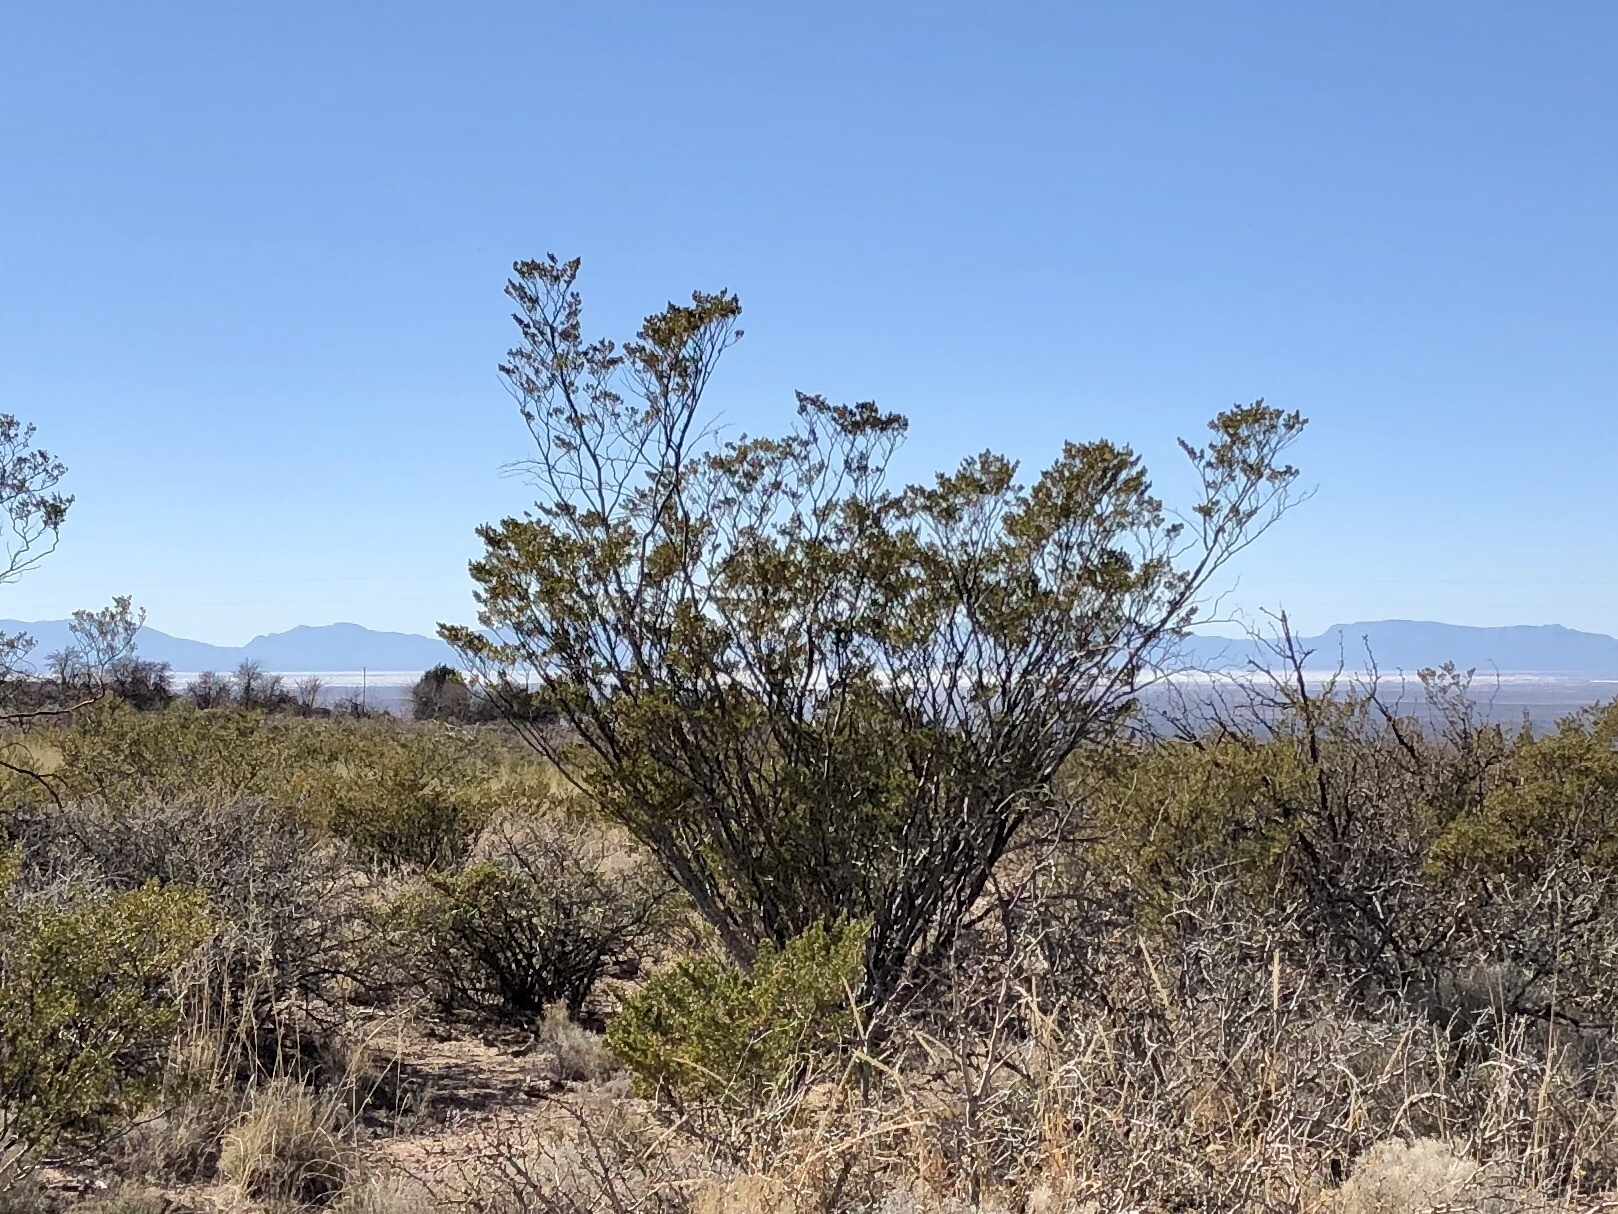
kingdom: Plantae
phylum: Tracheophyta
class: Magnoliopsida
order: Zygophyllales
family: Zygophyllaceae
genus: Larrea
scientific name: Larrea tridentata
